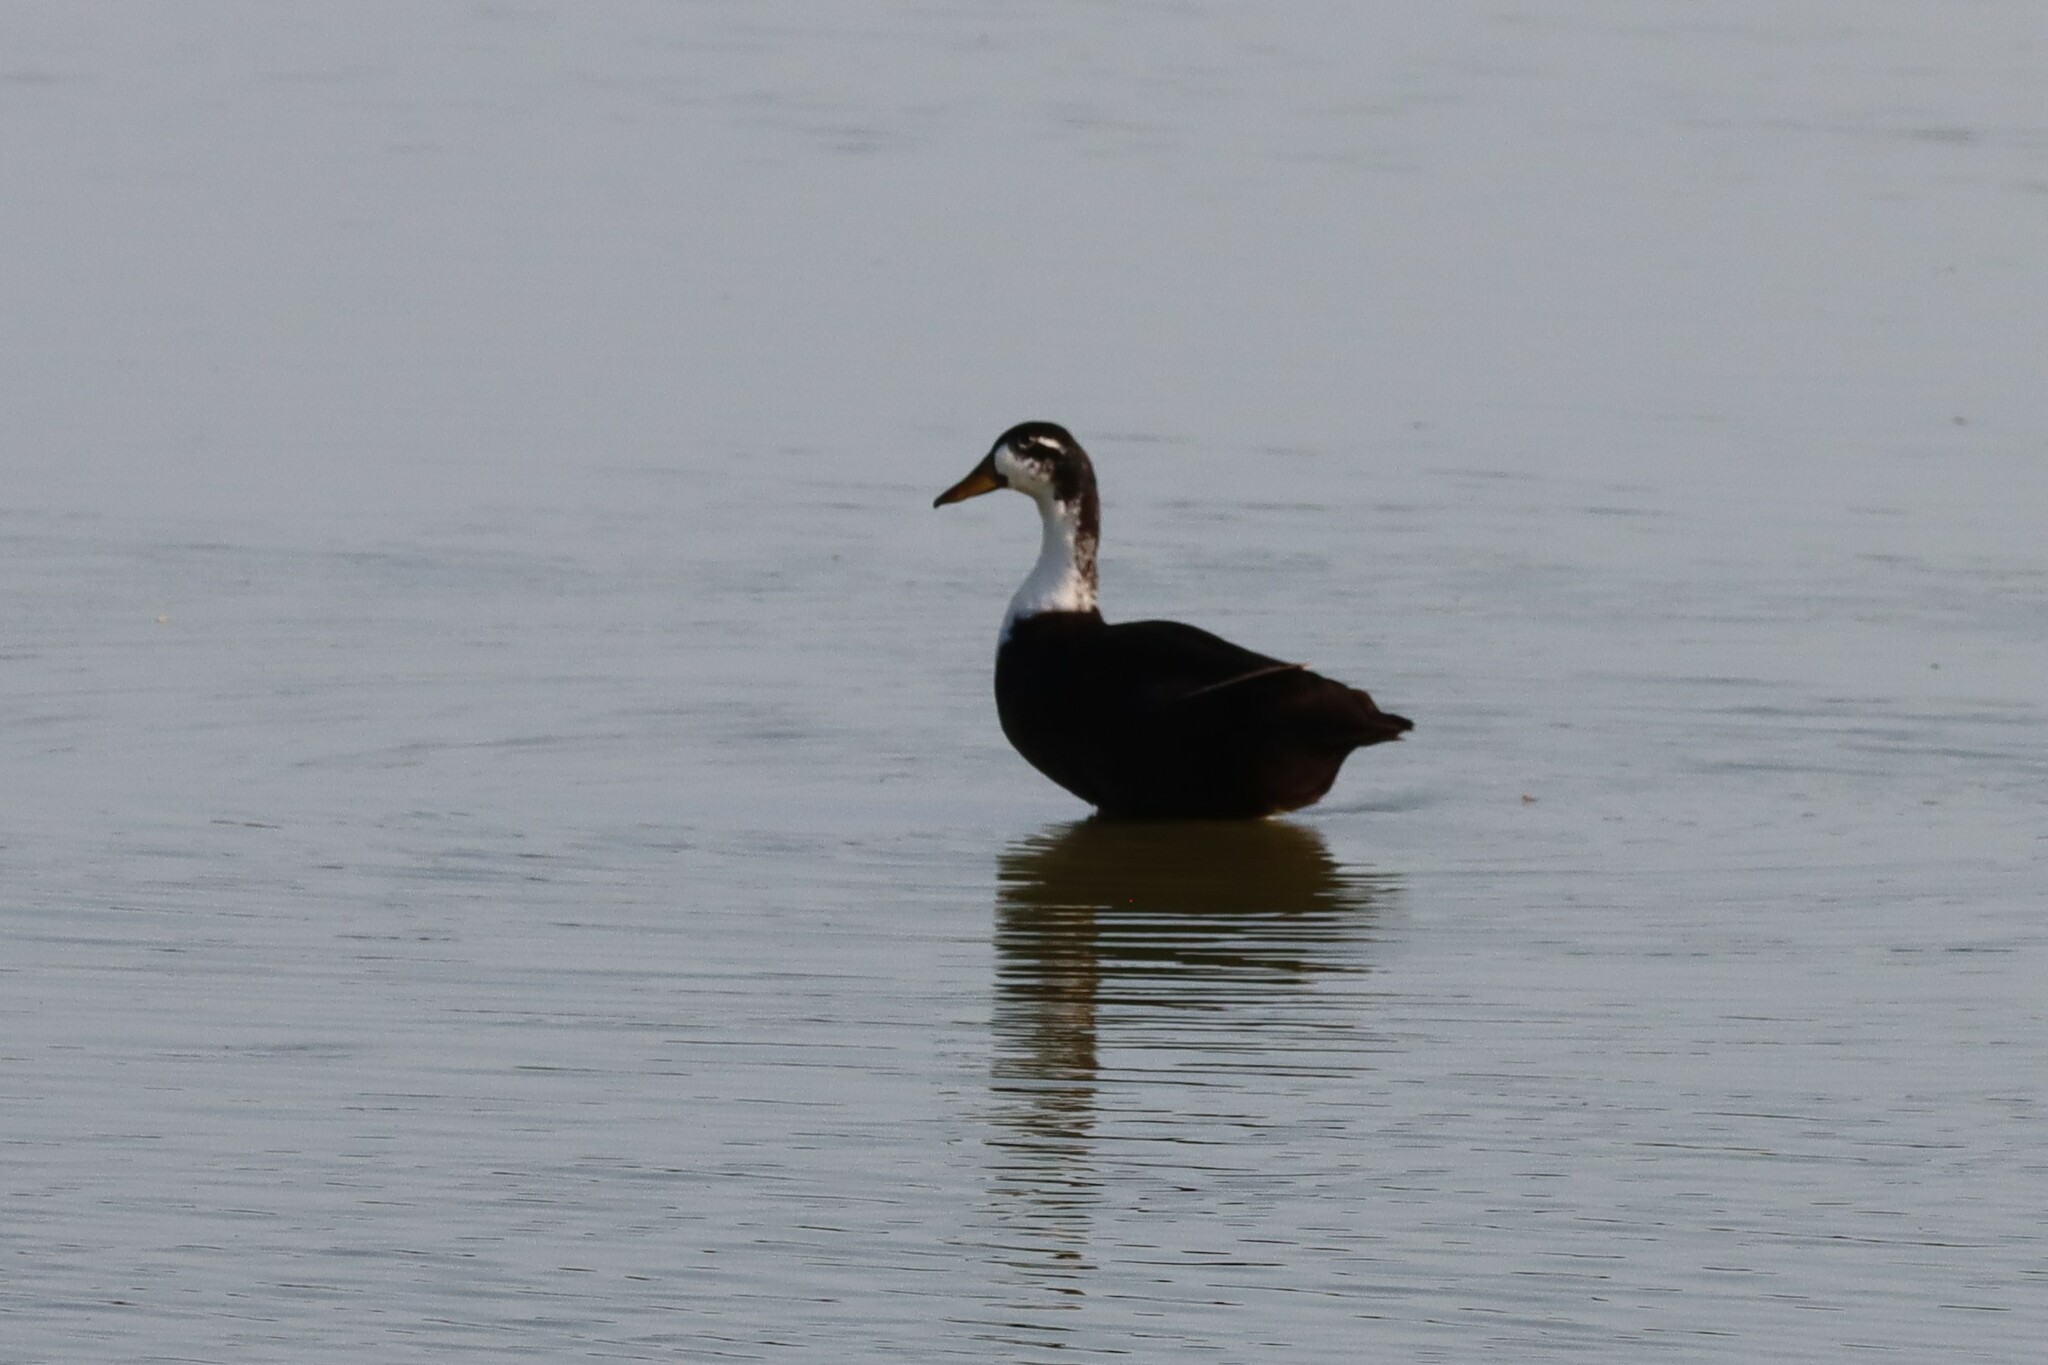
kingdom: Animalia
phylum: Chordata
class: Aves
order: Anseriformes
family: Anatidae
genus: Anas
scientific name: Anas platyrhynchos
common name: Mallard
